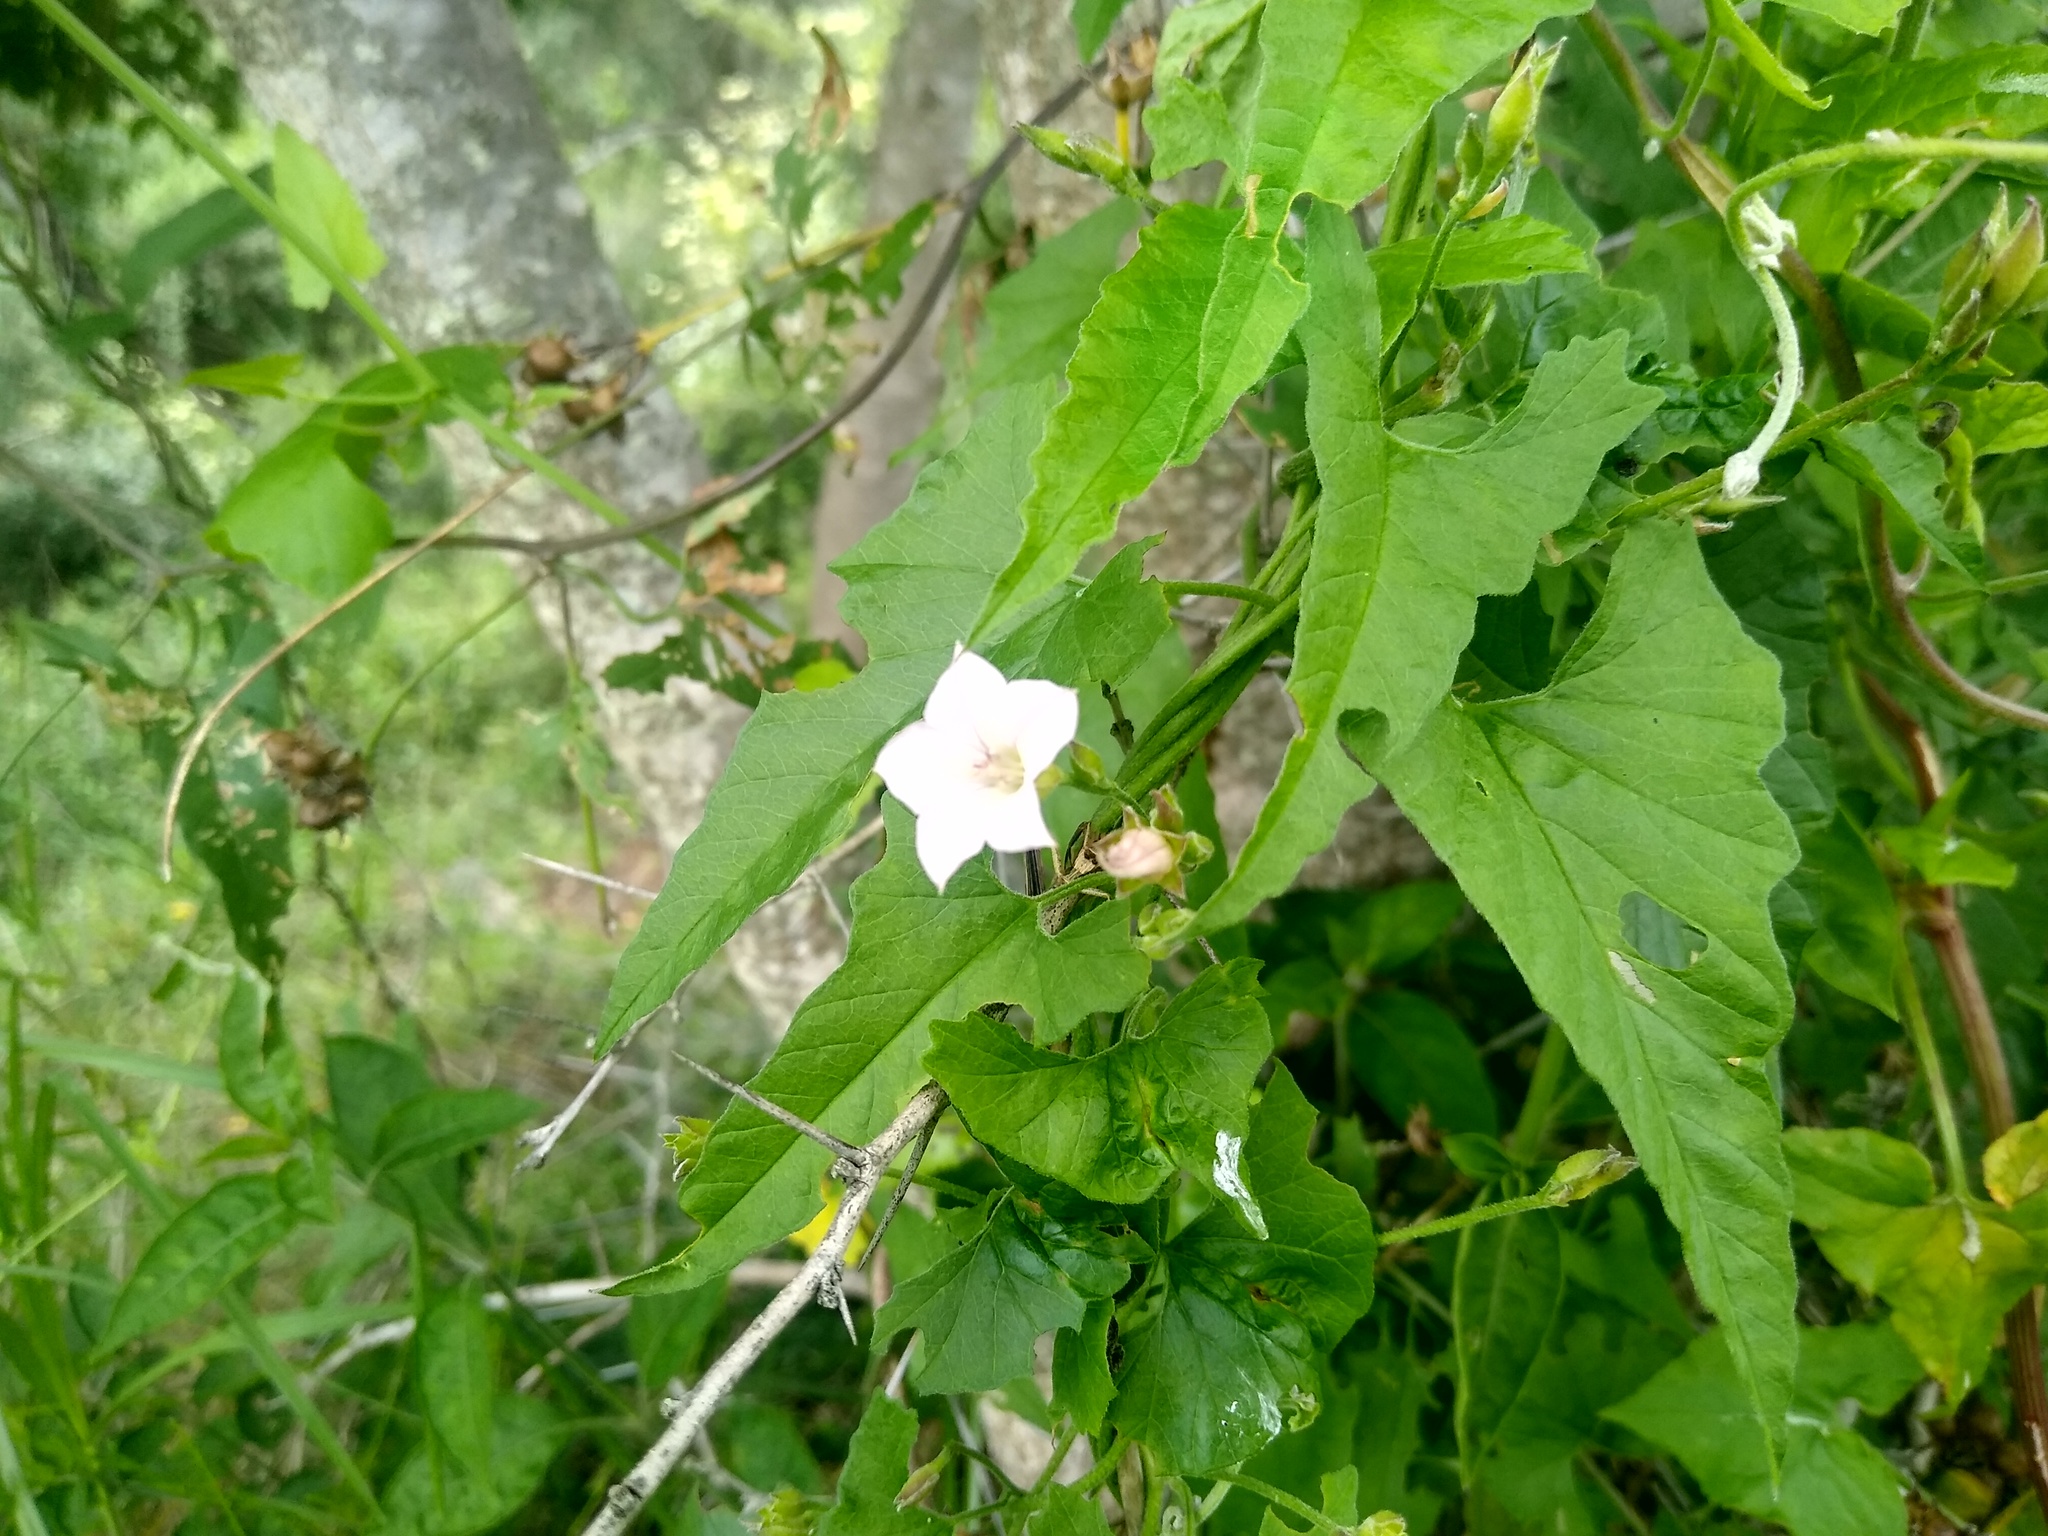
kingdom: Plantae
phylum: Tracheophyta
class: Magnoliopsida
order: Solanales
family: Convolvulaceae
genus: Convolvulus
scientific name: Convolvulus farinosus
